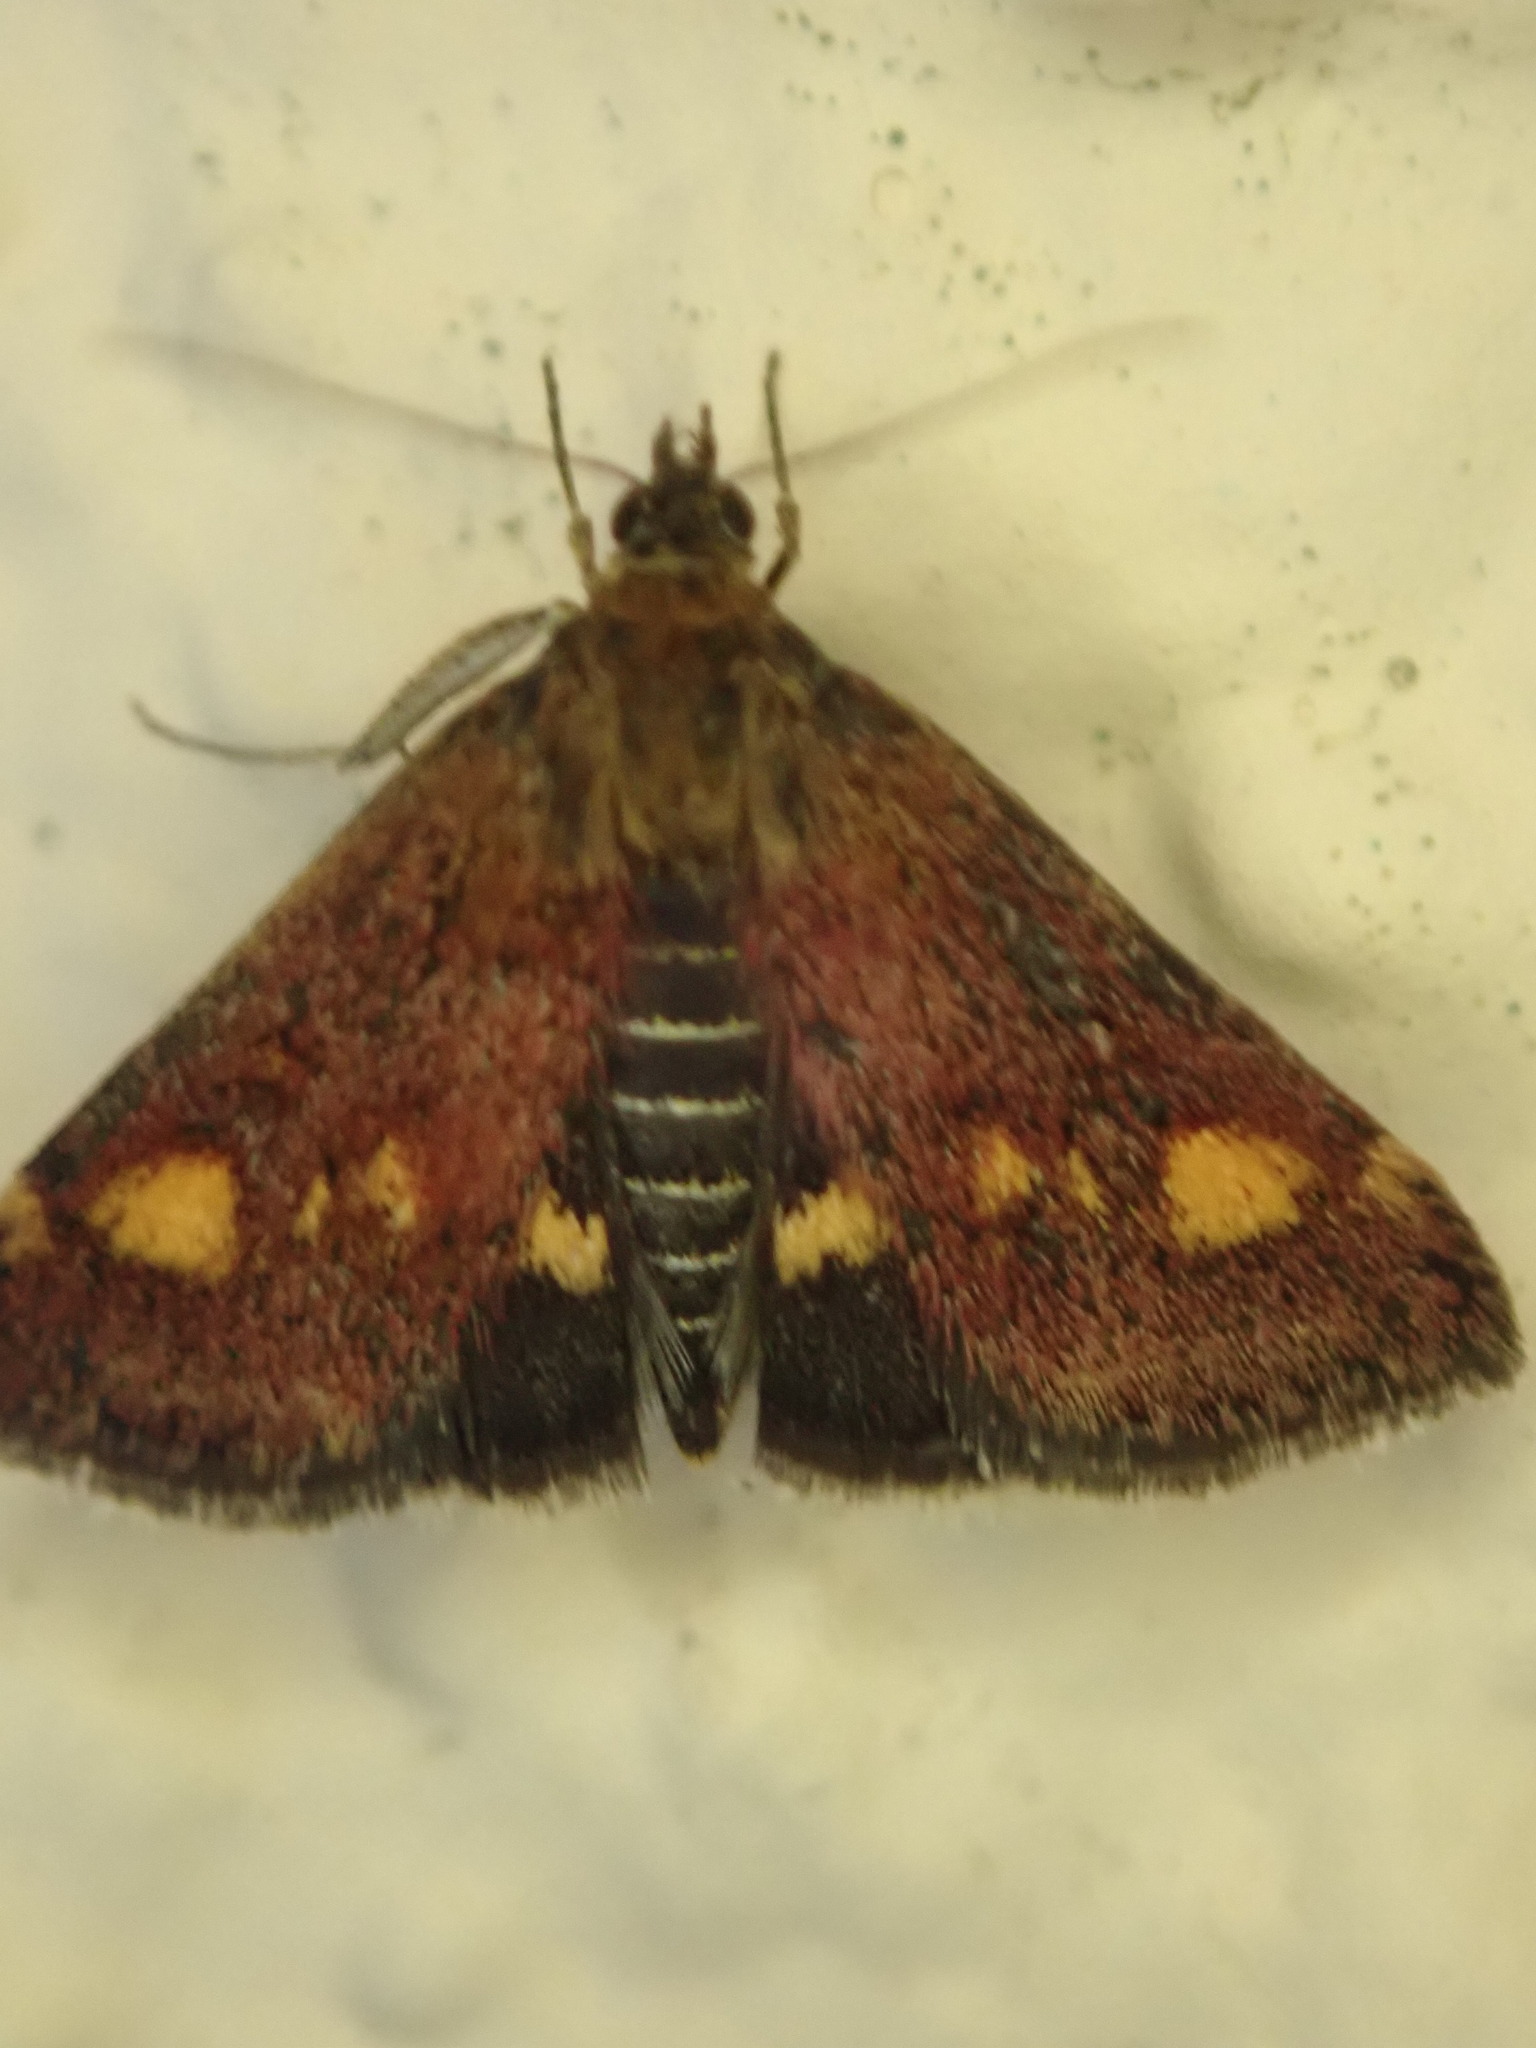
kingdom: Animalia
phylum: Arthropoda
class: Insecta
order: Lepidoptera
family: Crambidae
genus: Pyrausta
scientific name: Pyrausta aurata
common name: Small purple & gold
